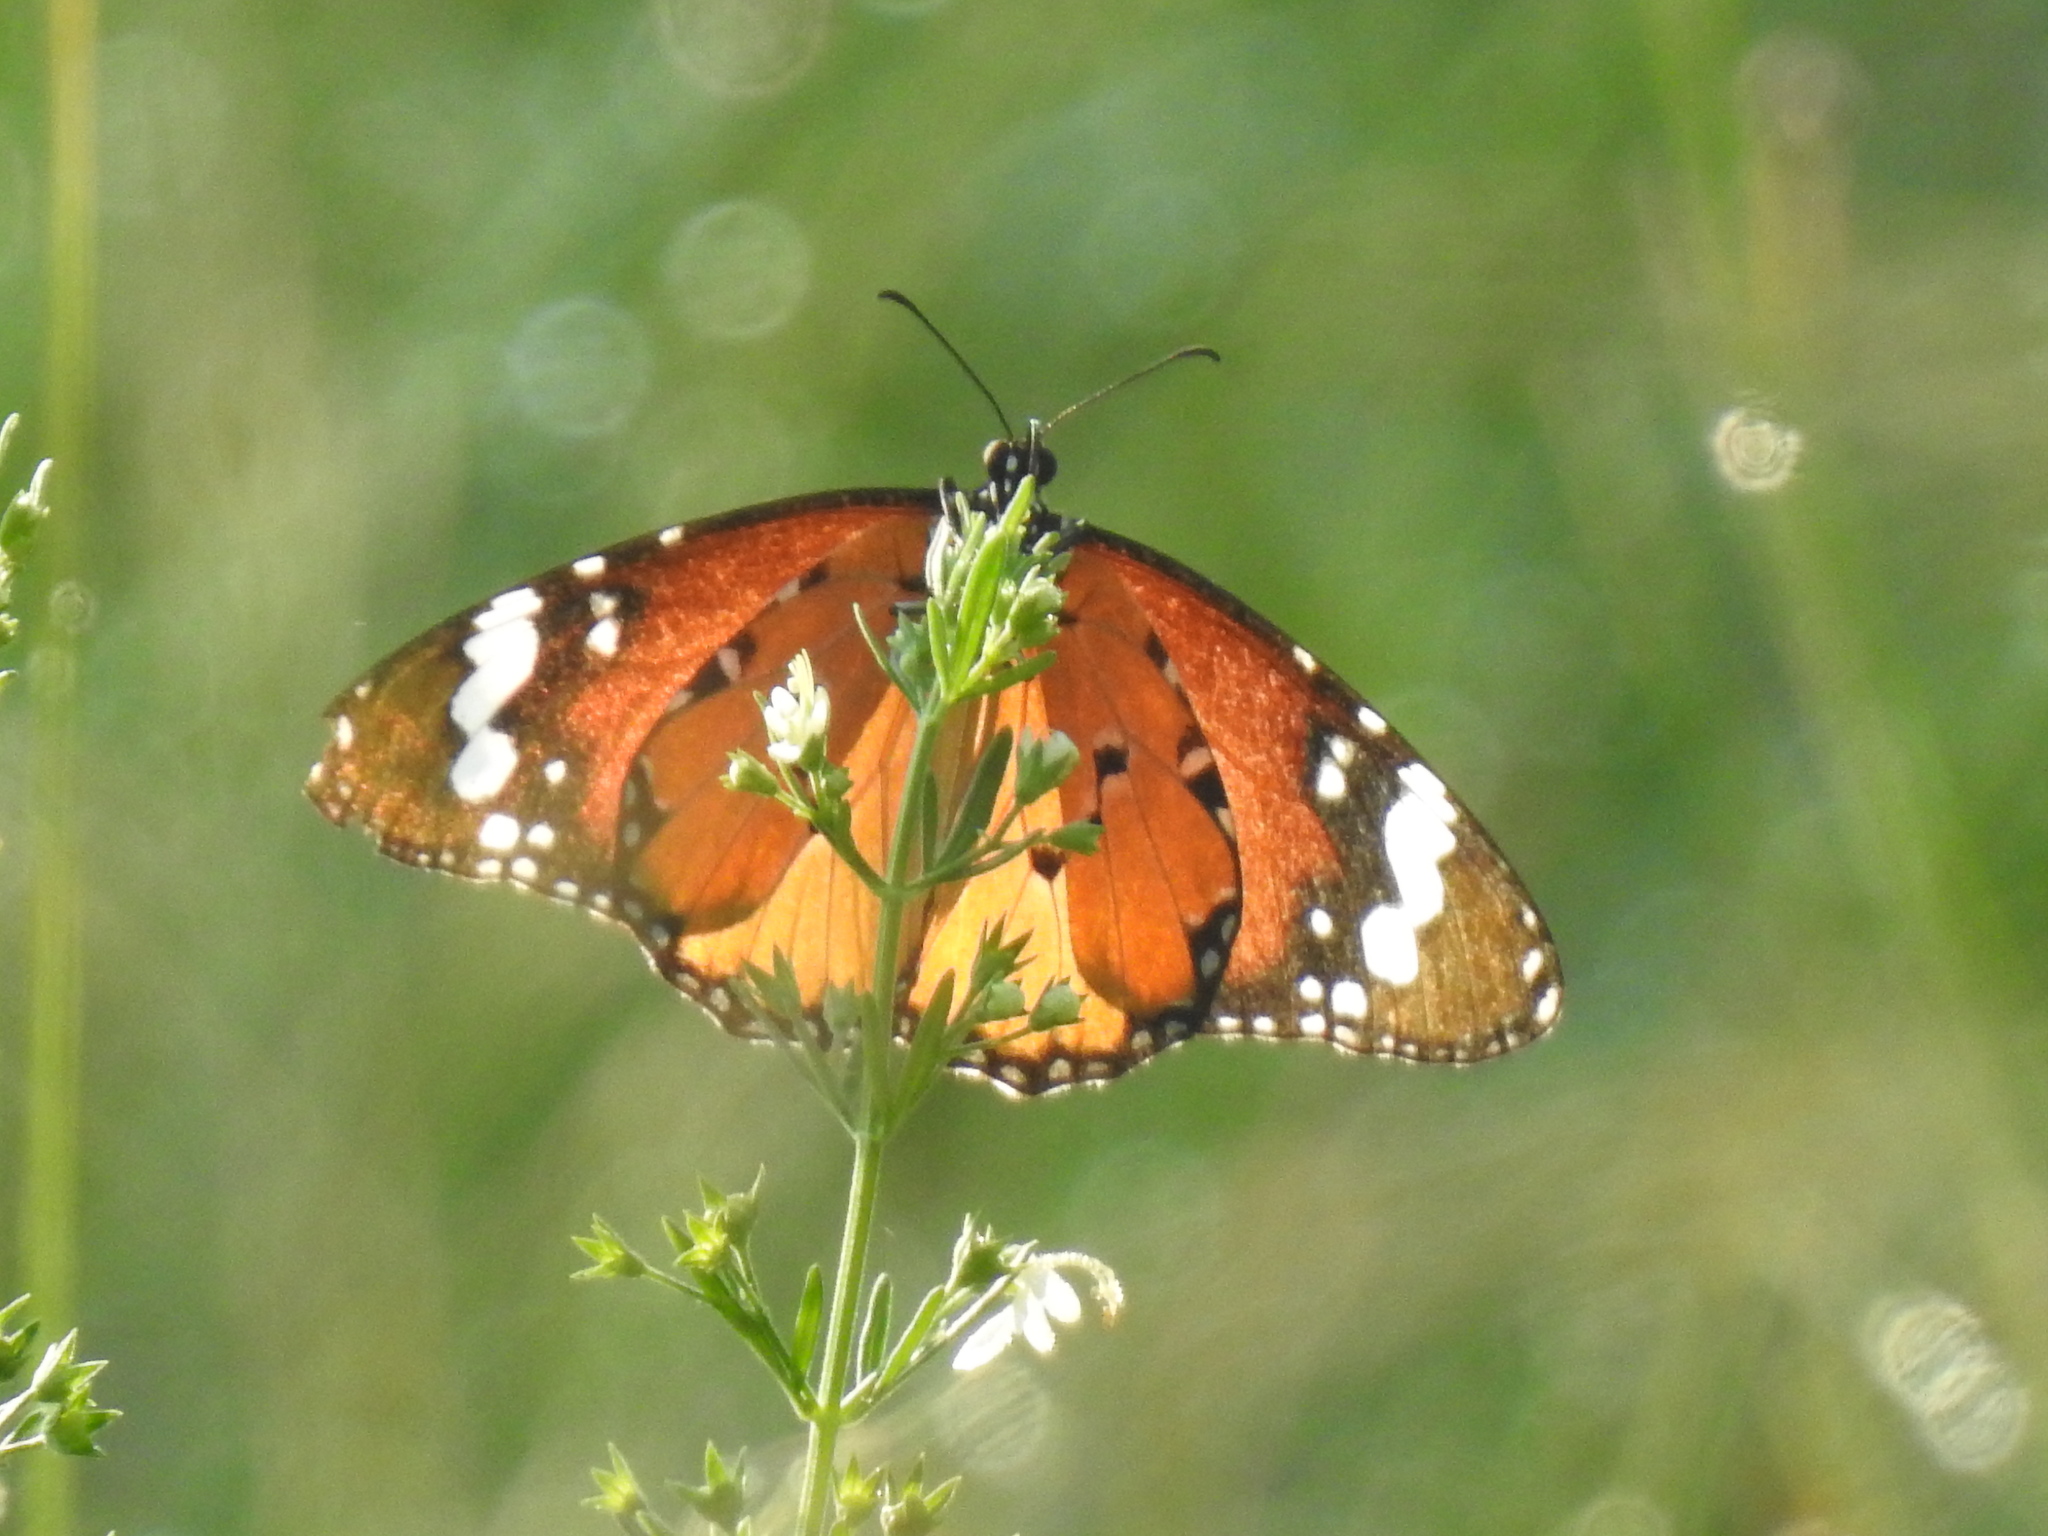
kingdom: Animalia
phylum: Arthropoda
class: Insecta
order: Lepidoptera
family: Nymphalidae
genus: Danaus
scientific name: Danaus chrysippus
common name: Plain tiger
